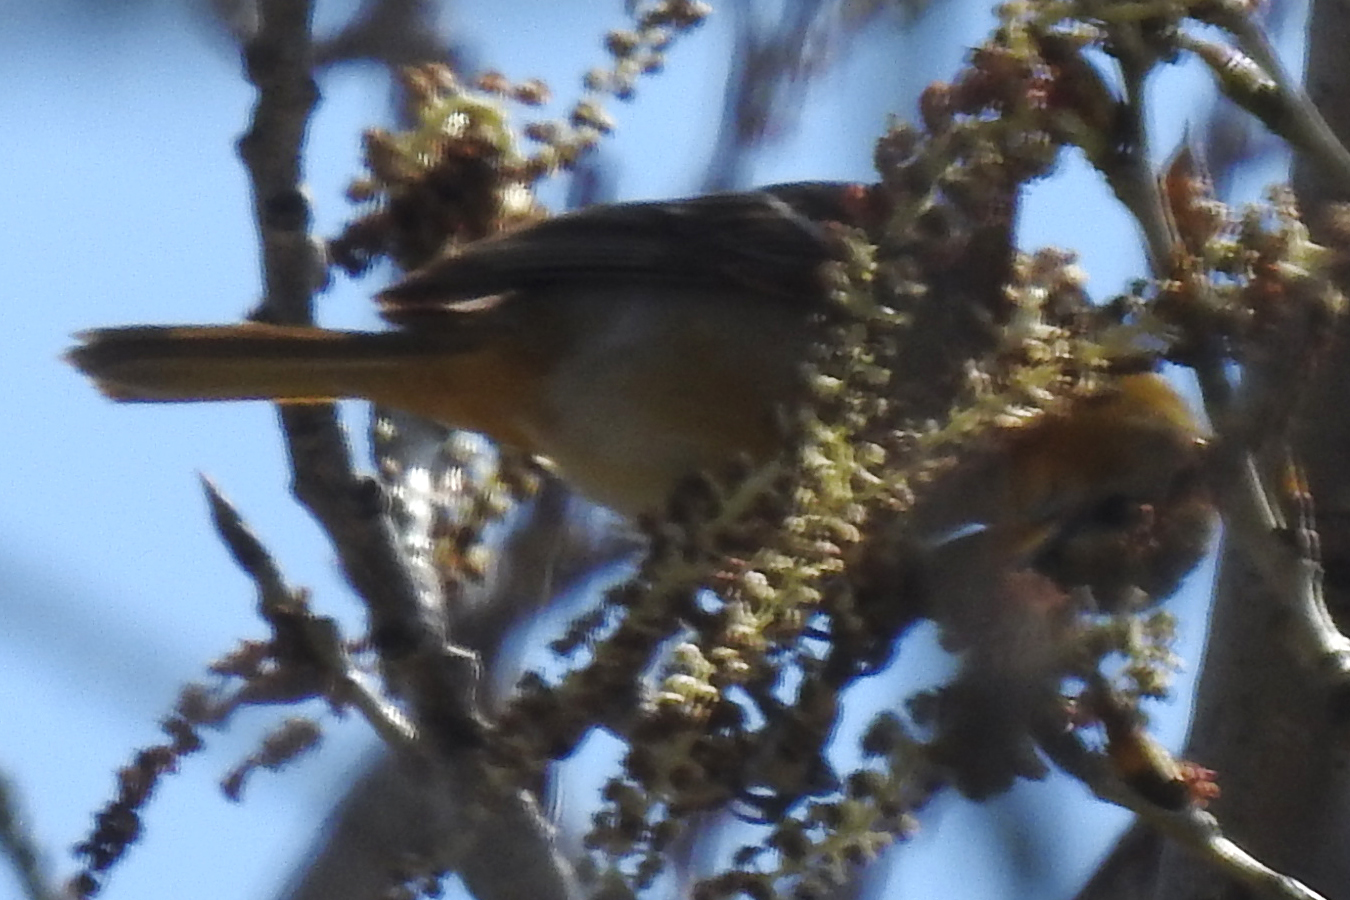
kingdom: Animalia
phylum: Chordata
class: Aves
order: Passeriformes
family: Icteridae
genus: Icterus
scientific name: Icterus bullockii
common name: Bullock's oriole
